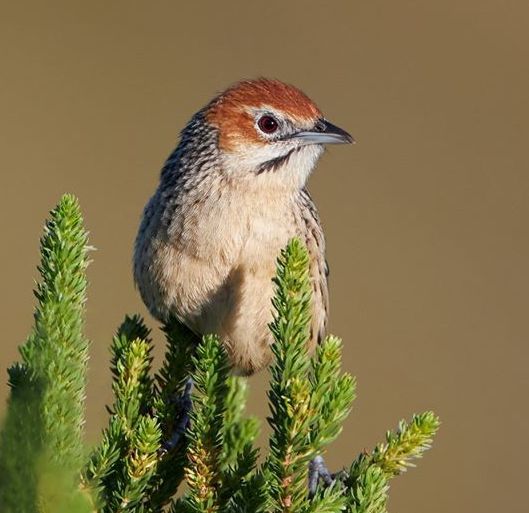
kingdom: Animalia
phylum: Chordata
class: Aves
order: Passeriformes
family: Macrosphenidae
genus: Sphenoeacus
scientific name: Sphenoeacus afer
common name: Cape grassbird
